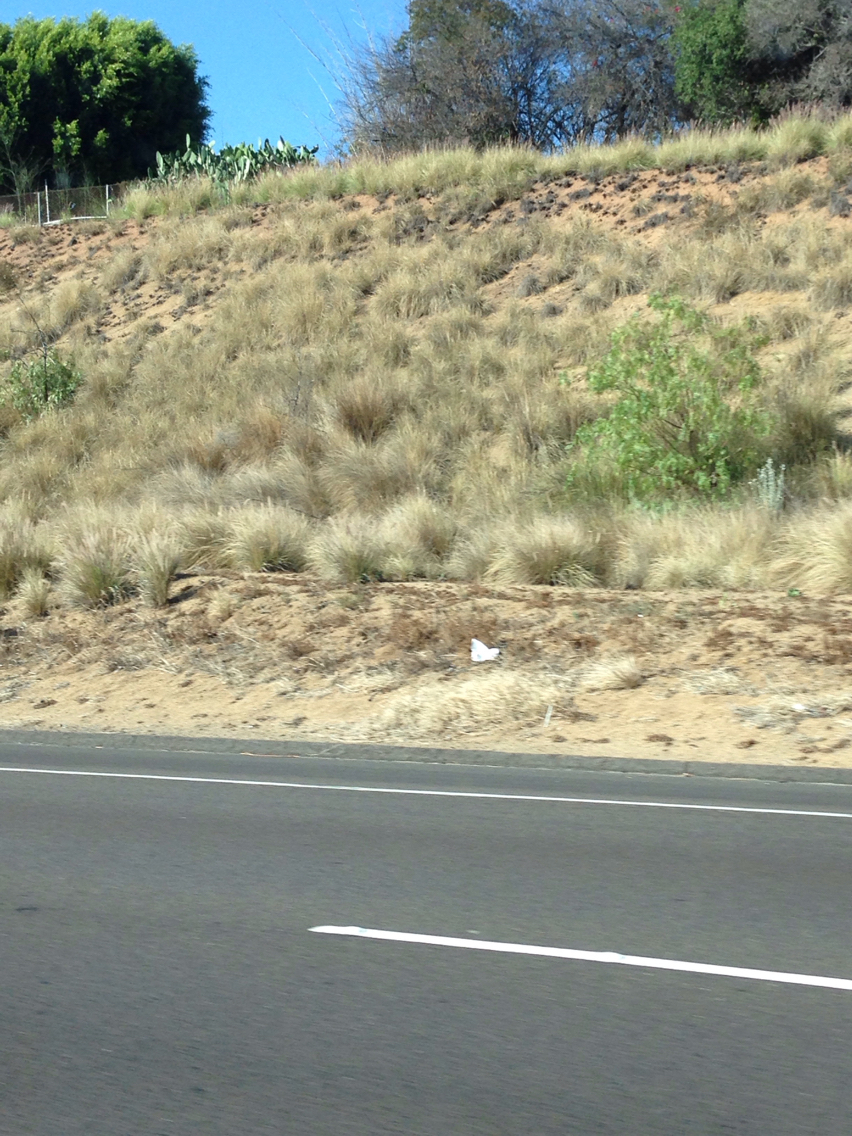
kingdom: Plantae
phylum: Tracheophyta
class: Liliopsida
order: Poales
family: Poaceae
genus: Cenchrus
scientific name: Cenchrus setaceus
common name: Crimson fountaingrass
